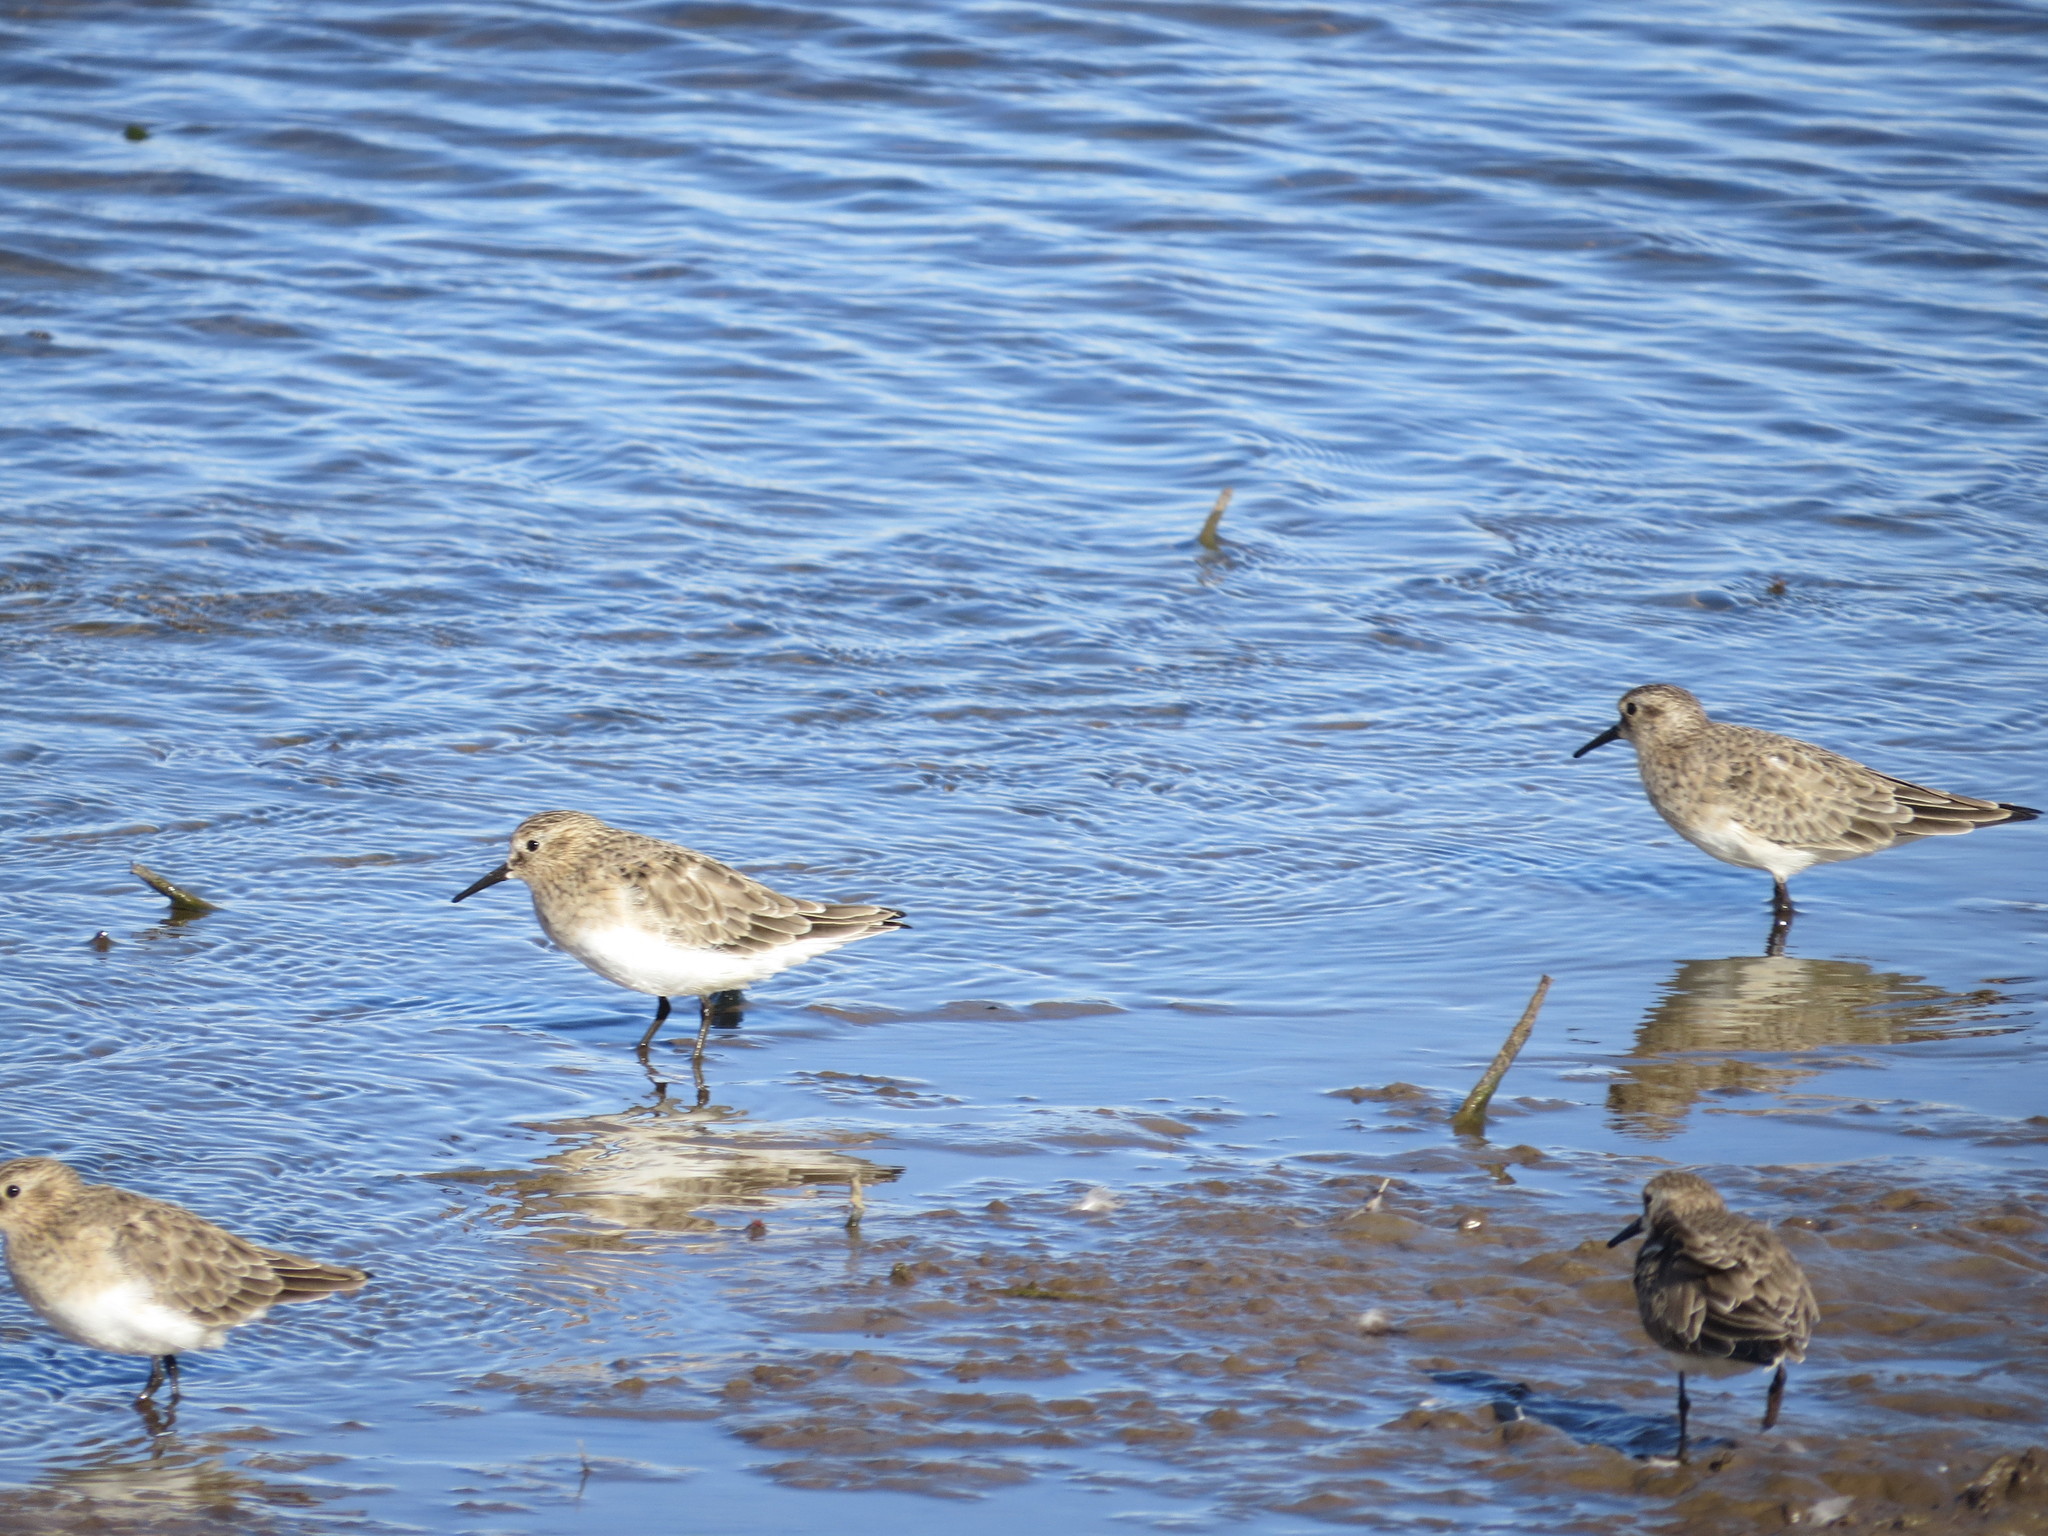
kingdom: Animalia
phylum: Chordata
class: Aves
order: Charadriiformes
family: Scolopacidae
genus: Calidris
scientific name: Calidris bairdii
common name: Baird's sandpiper
